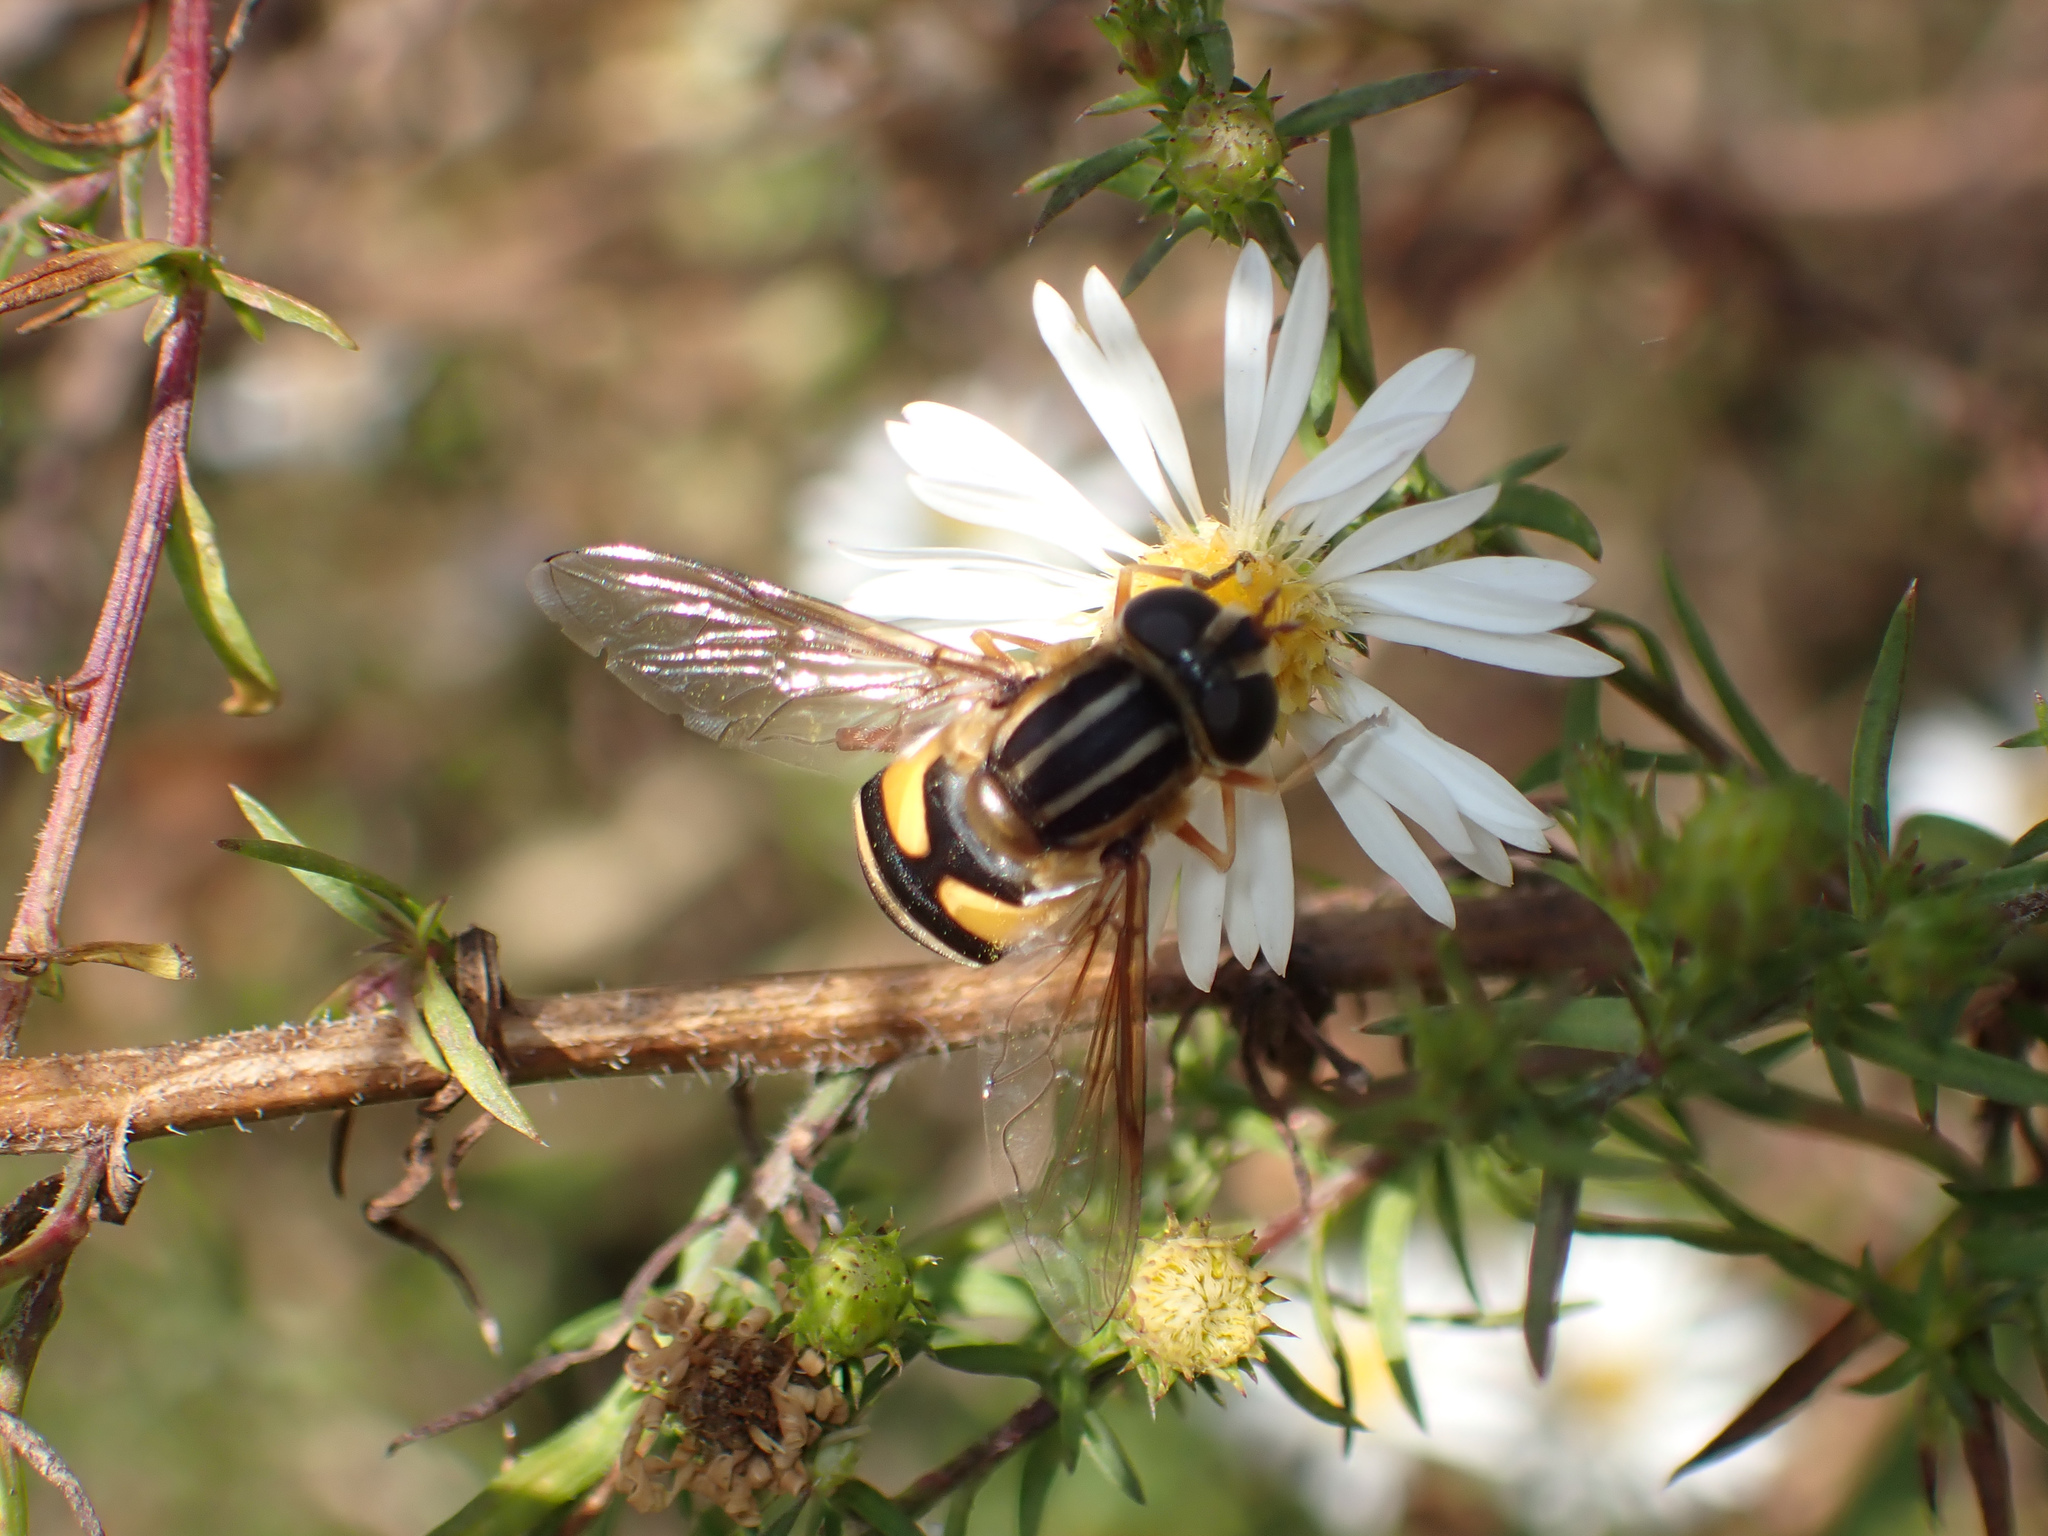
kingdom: Animalia
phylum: Arthropoda
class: Insecta
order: Diptera
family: Syrphidae
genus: Helophilus
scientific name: Helophilus fasciatus
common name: Narrow-headed marsh fly
